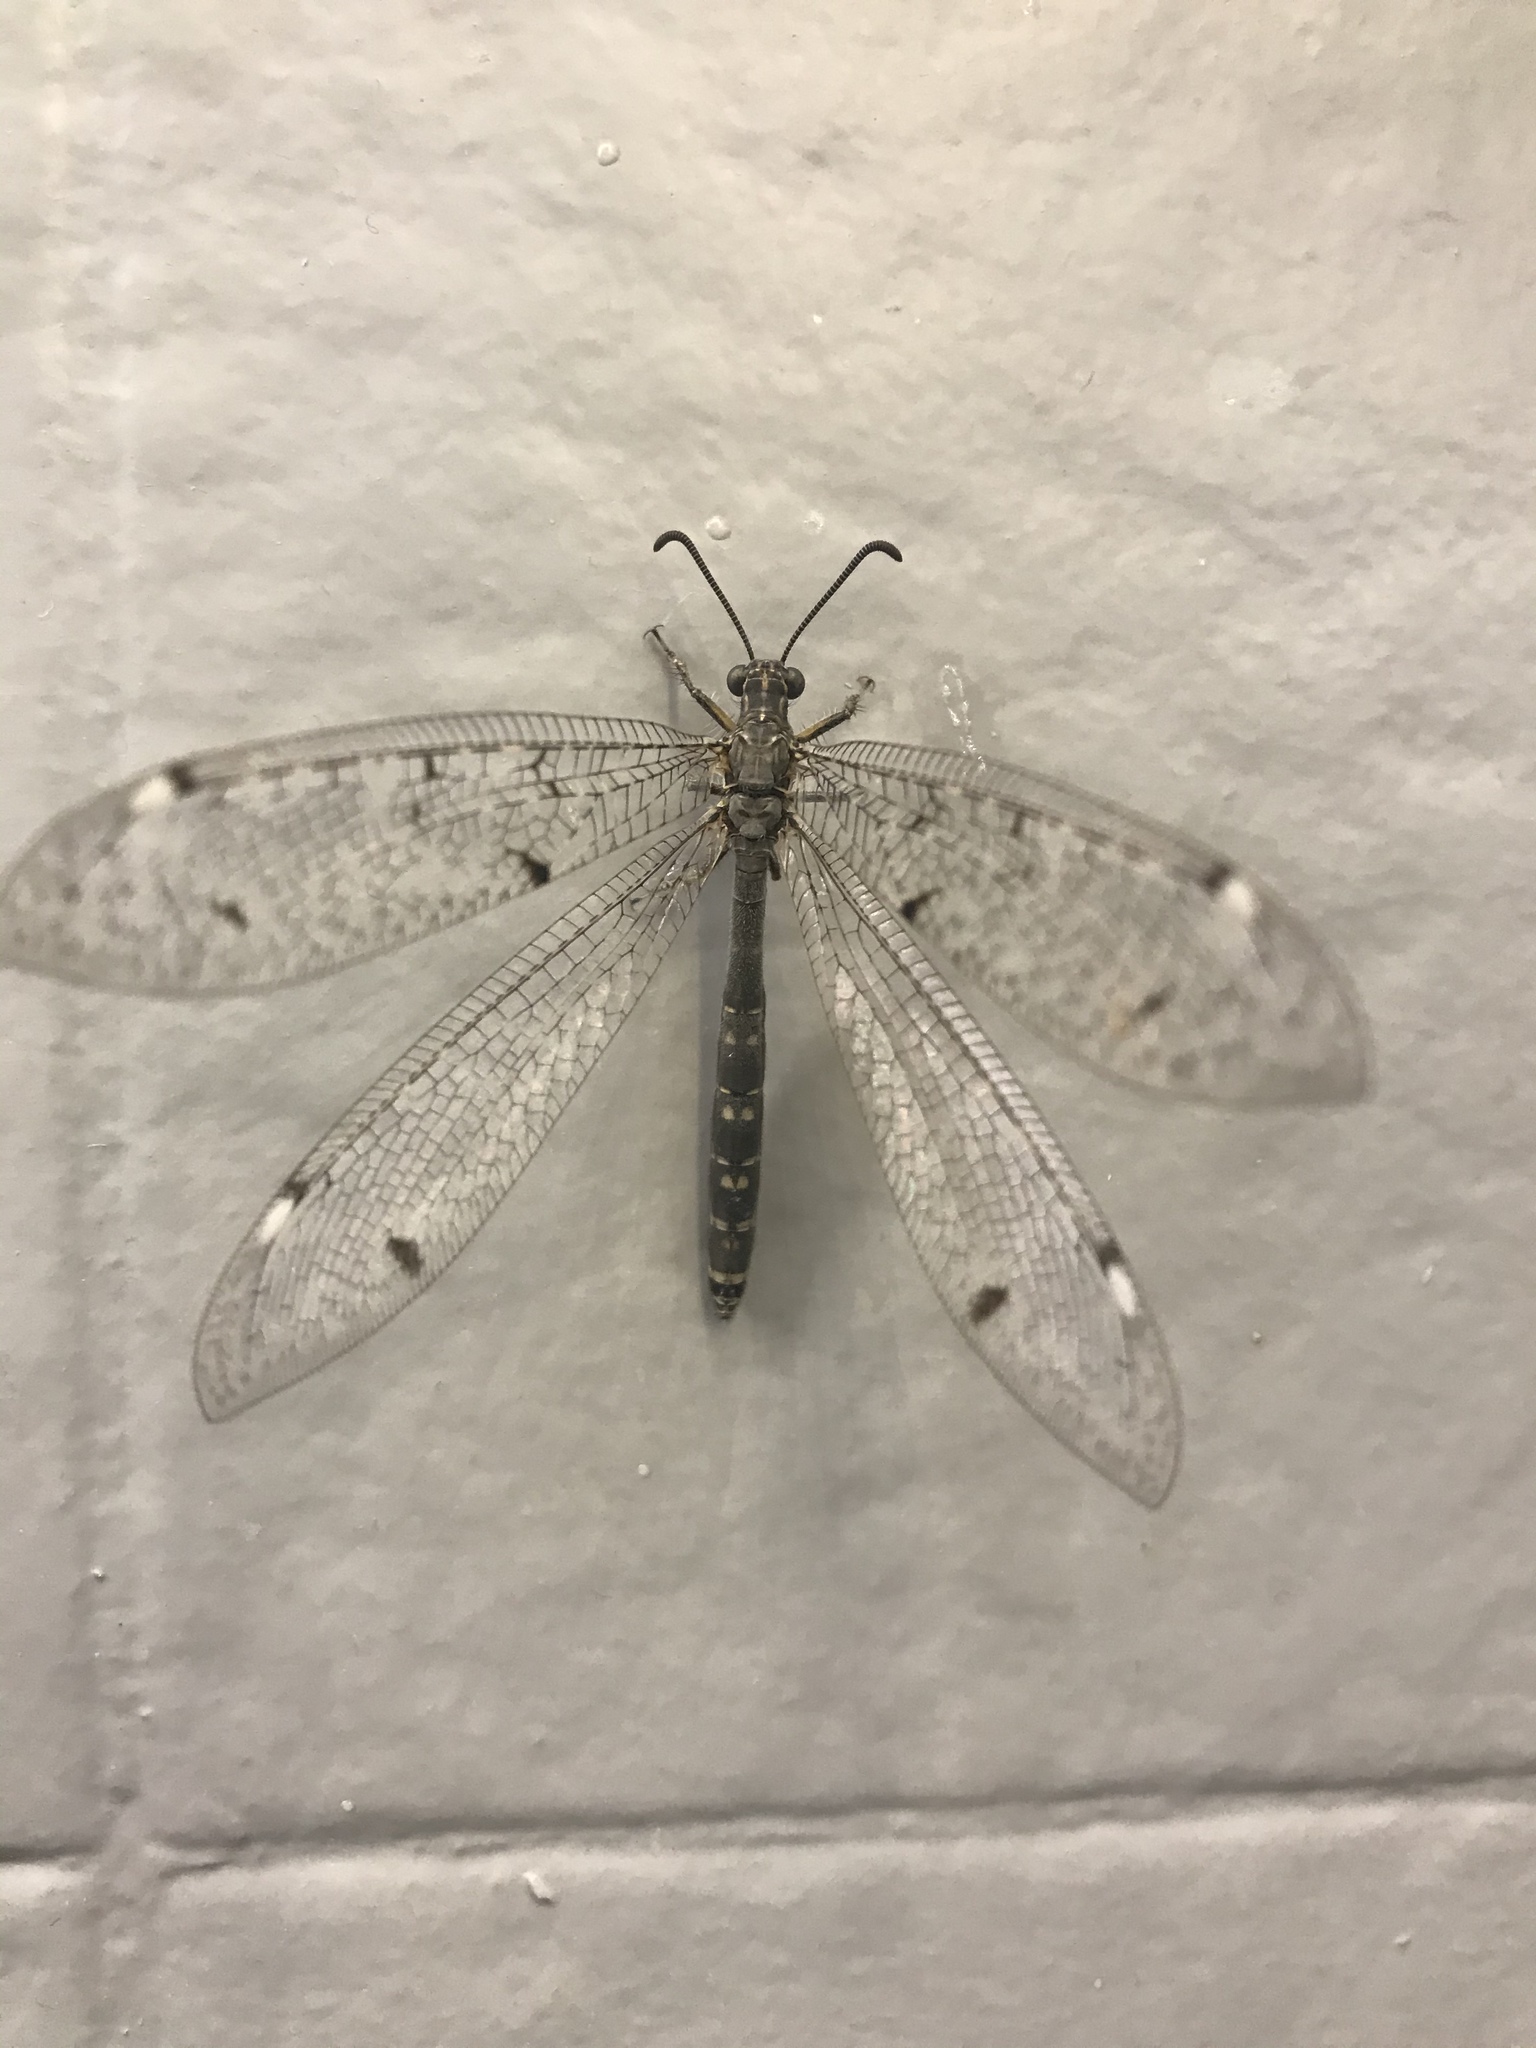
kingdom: Animalia
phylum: Arthropoda
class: Insecta
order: Neuroptera
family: Myrmeleontidae
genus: Distoleon
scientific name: Distoleon tetragrammicus
